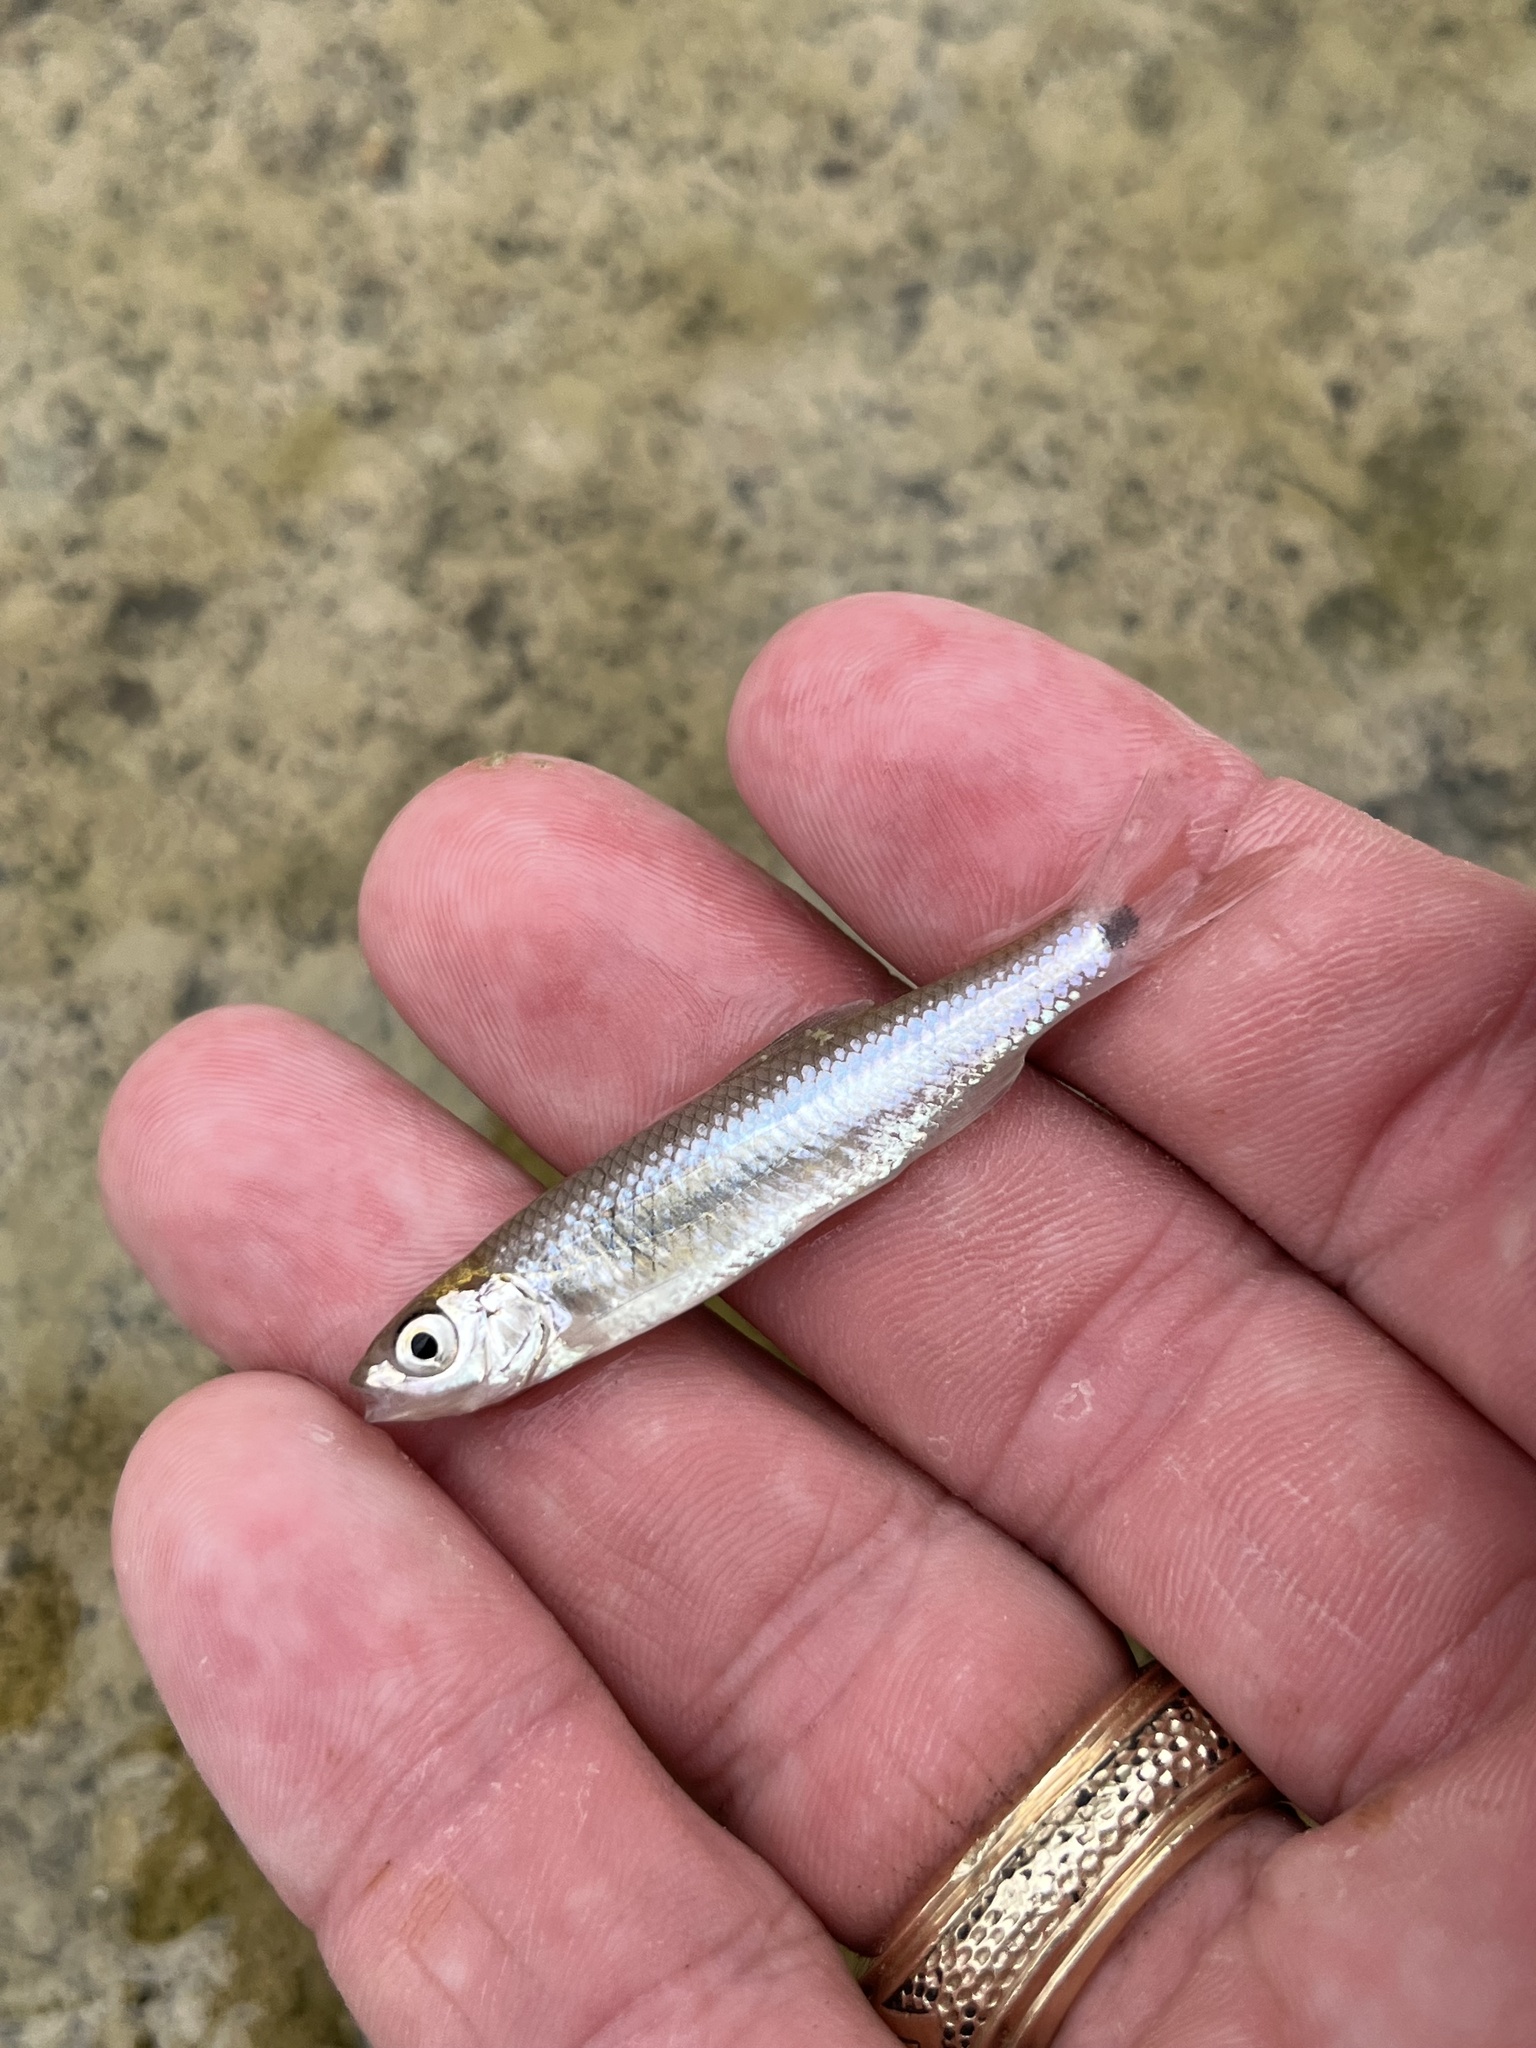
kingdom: Animalia
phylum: Chordata
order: Cypriniformes
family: Cyprinidae
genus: Cyprinella
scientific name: Cyprinella venusta
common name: Blacktail shiner
